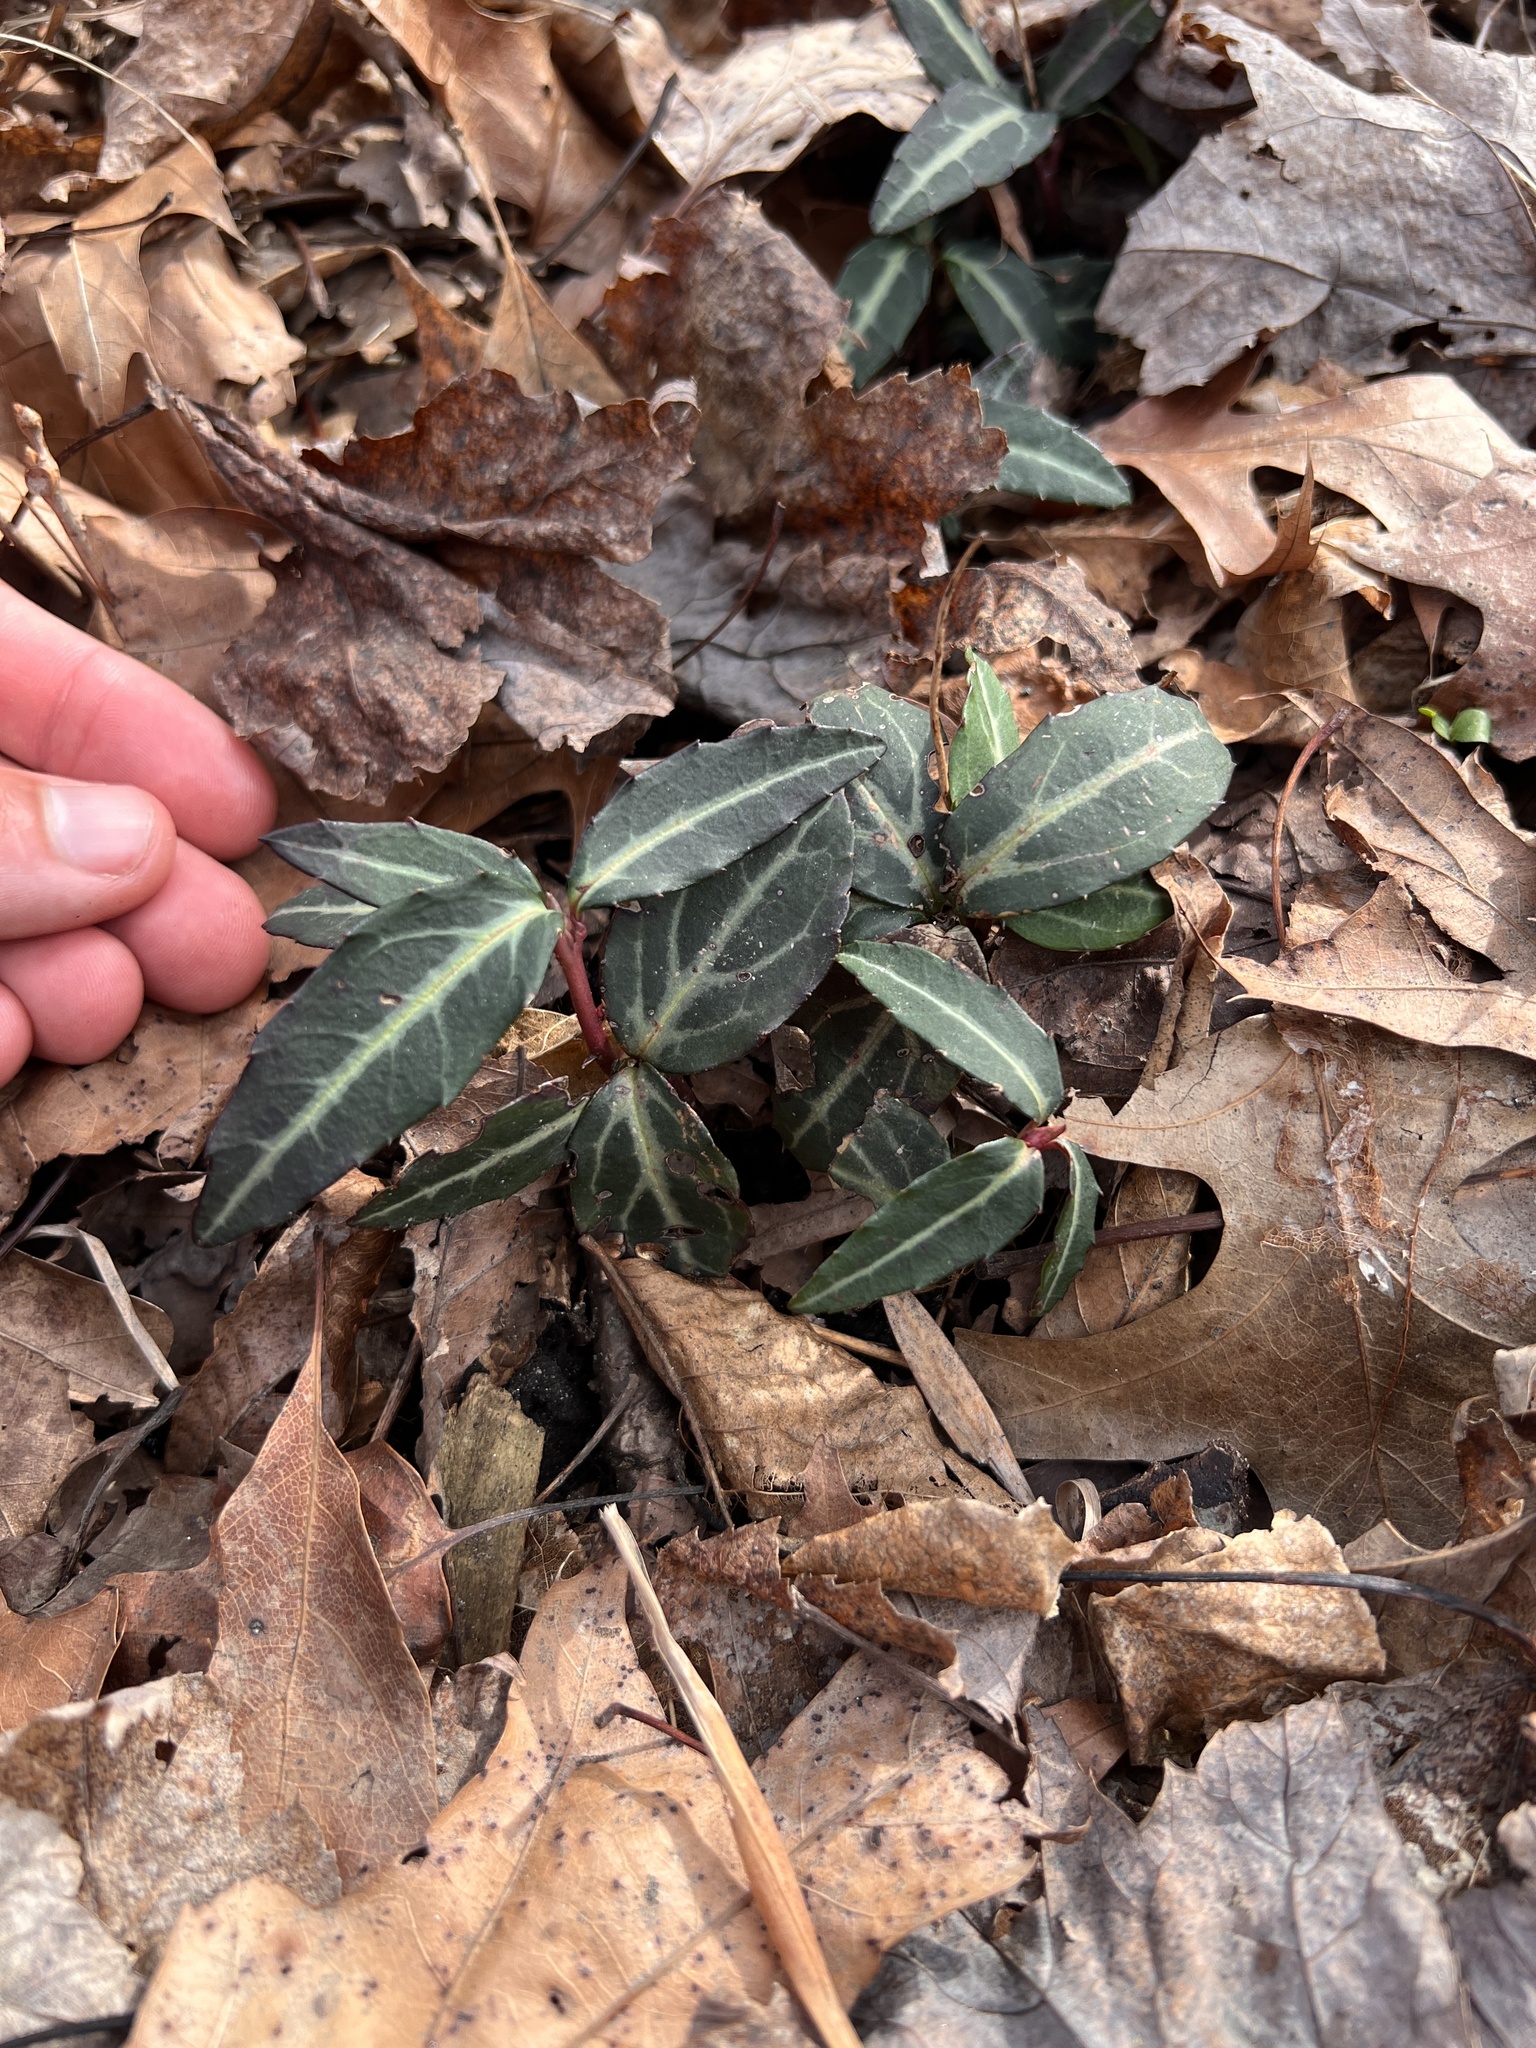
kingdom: Plantae
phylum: Tracheophyta
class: Magnoliopsida
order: Ericales
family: Ericaceae
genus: Chimaphila
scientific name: Chimaphila maculata
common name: Spotted pipsissewa
